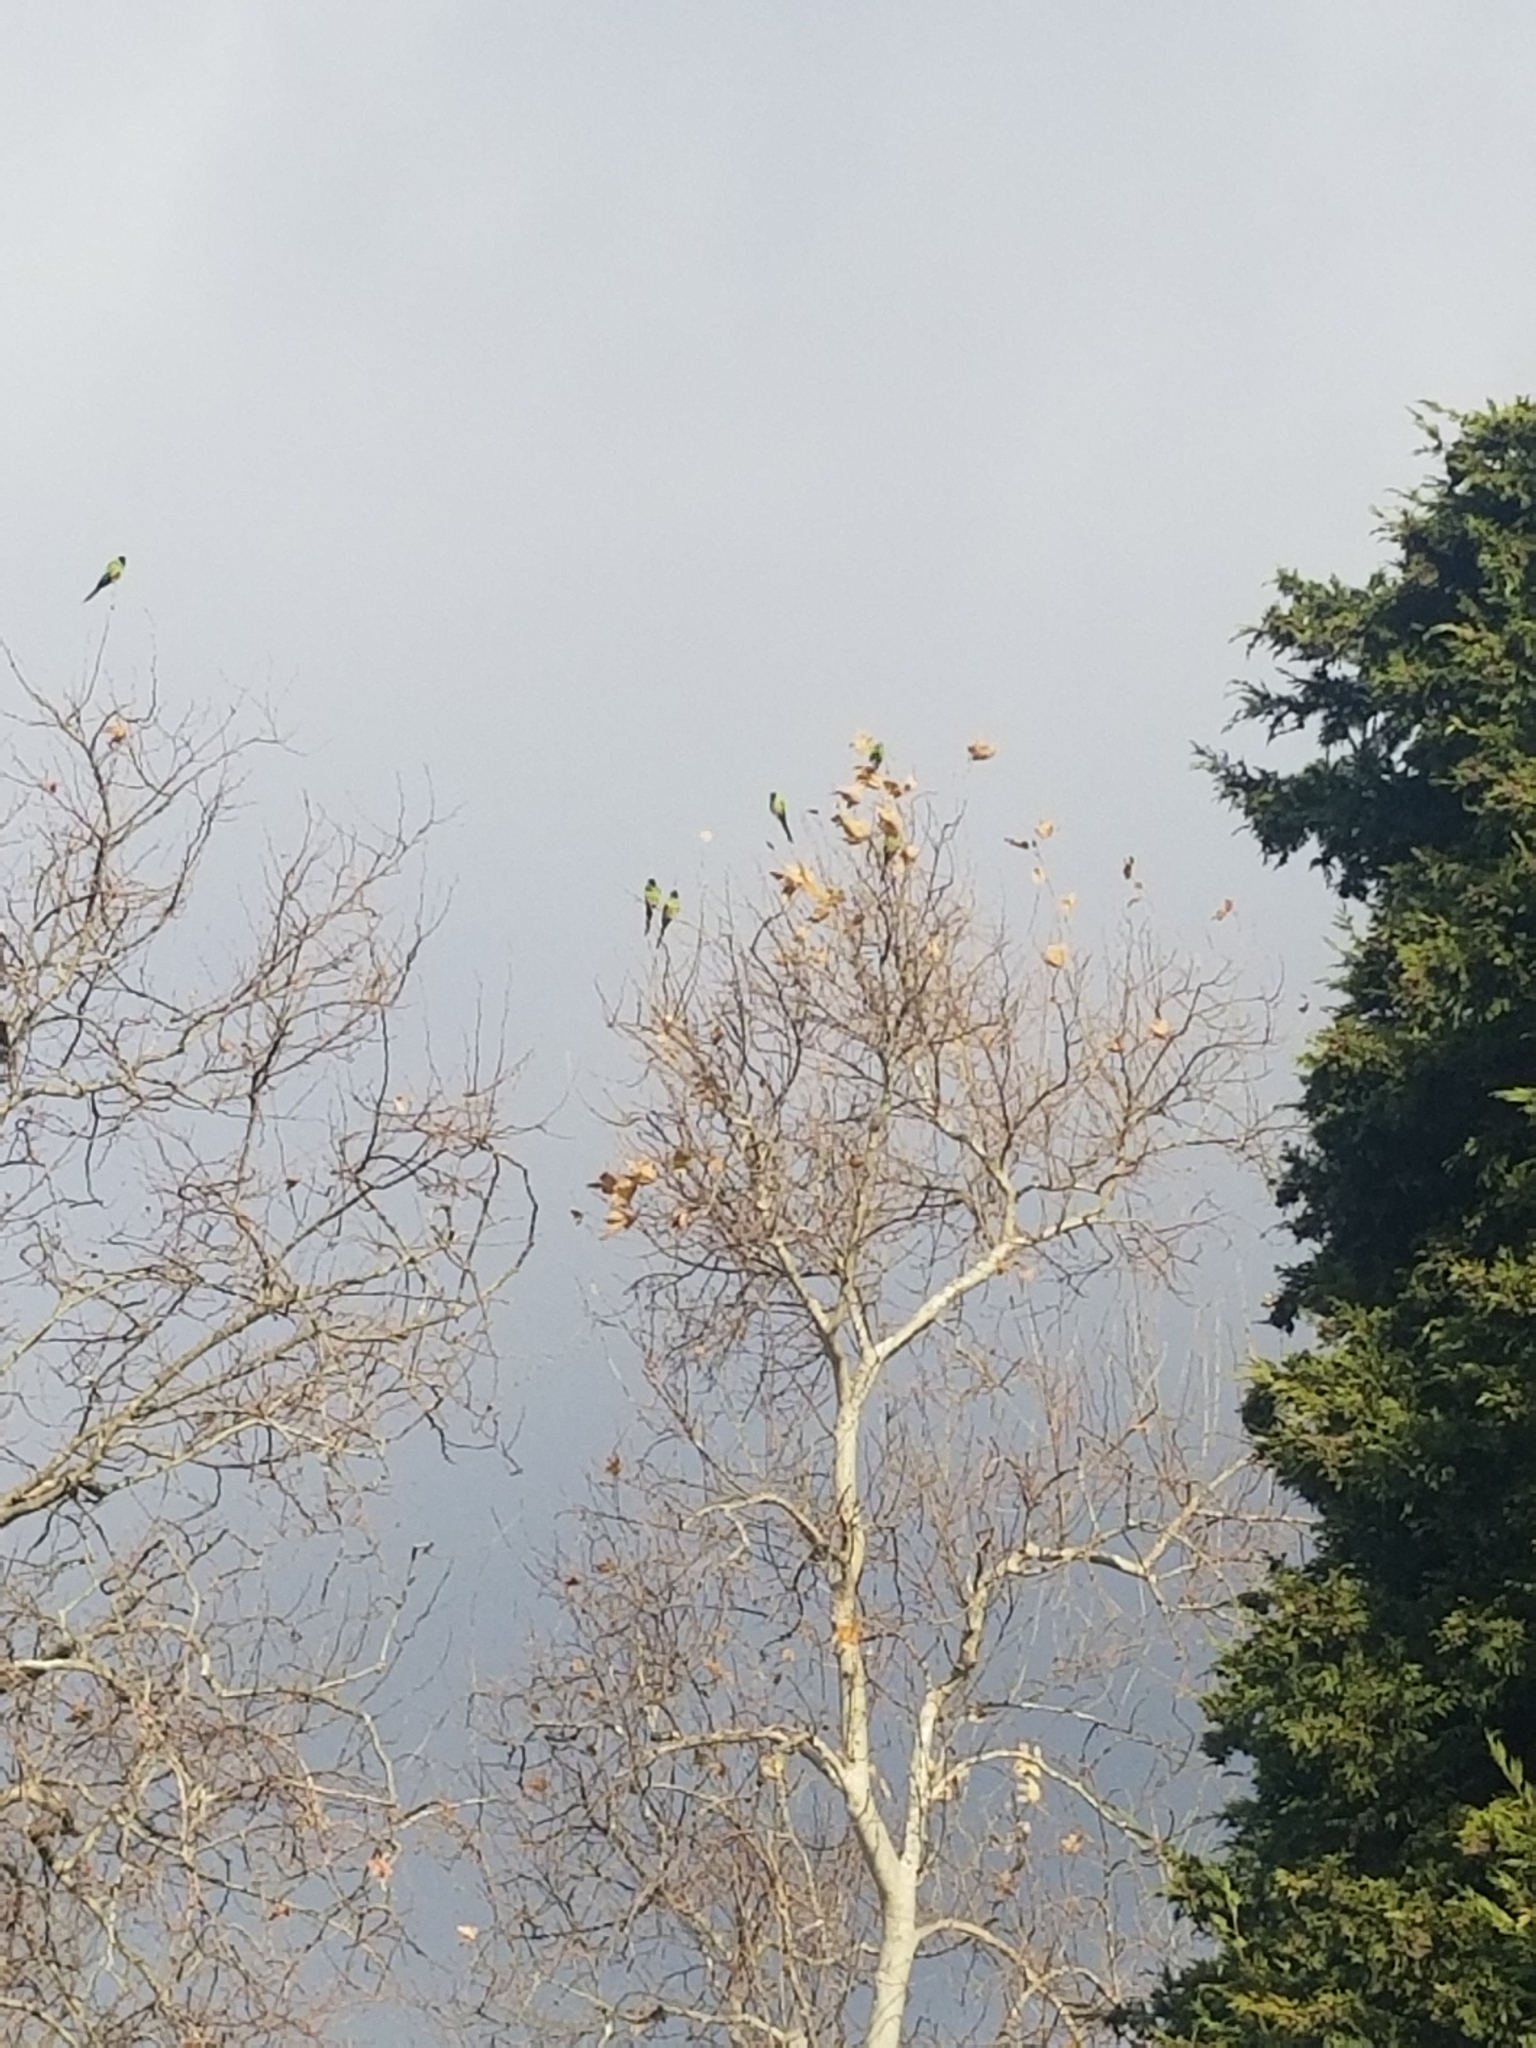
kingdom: Animalia
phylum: Chordata
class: Aves
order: Psittaciformes
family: Psittacidae
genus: Nandayus
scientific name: Nandayus nenday
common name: Nanday parakeet
